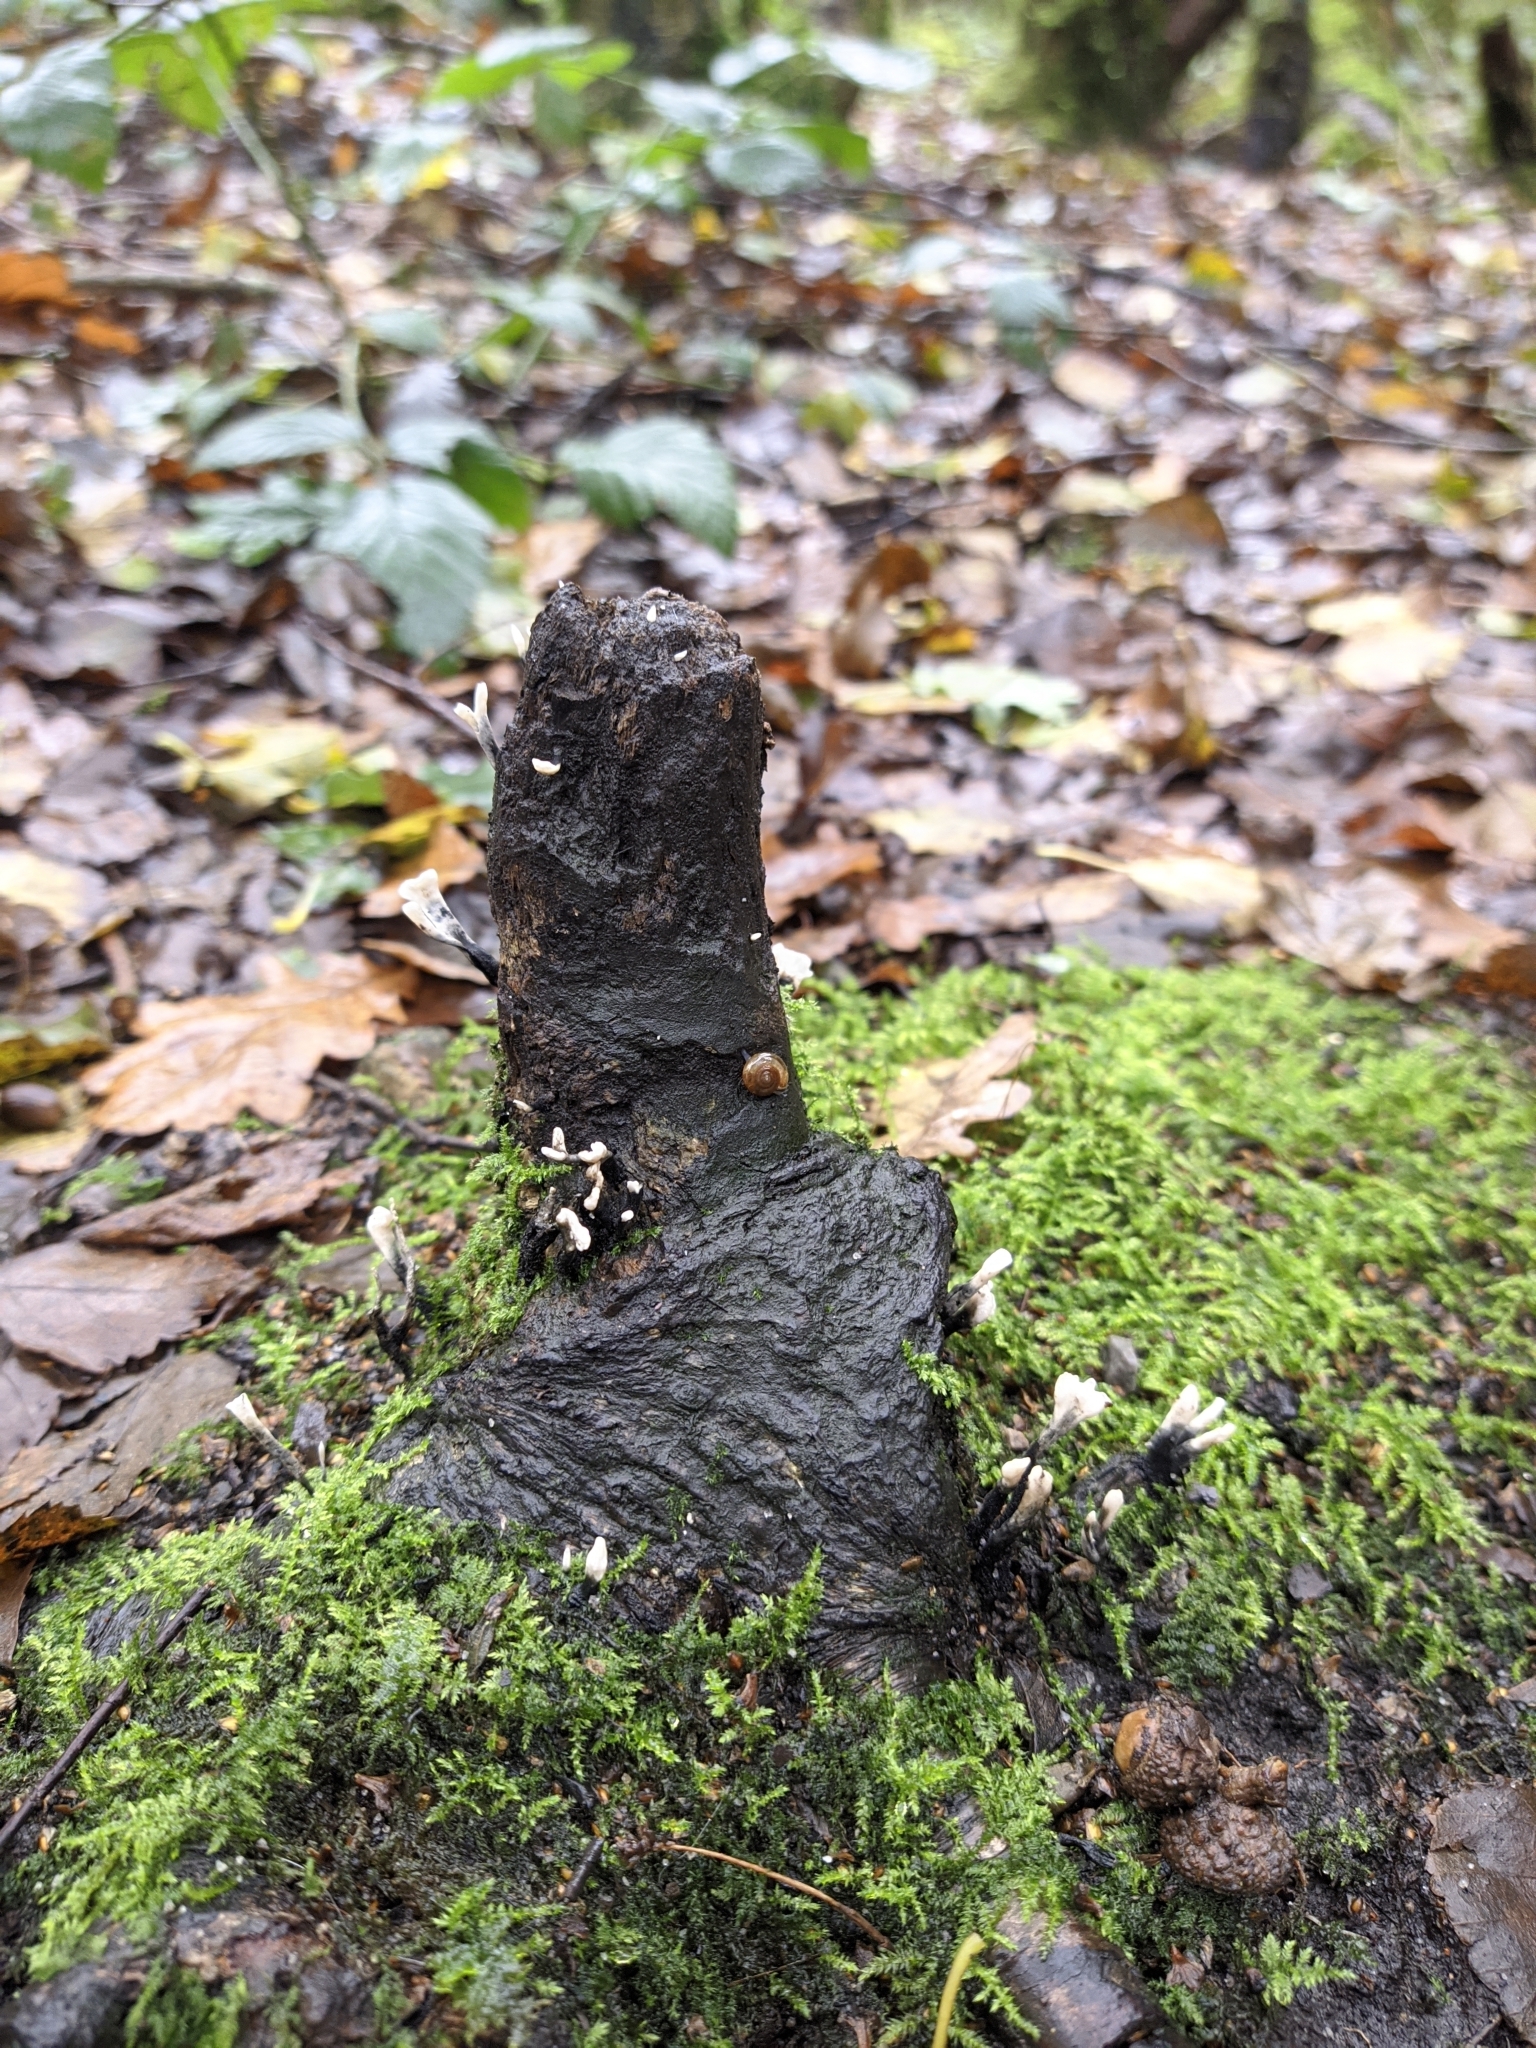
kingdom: Fungi
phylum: Ascomycota
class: Sordariomycetes
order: Xylariales
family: Xylariaceae
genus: Xylaria
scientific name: Xylaria hypoxylon
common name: Candle-snuff fungus
